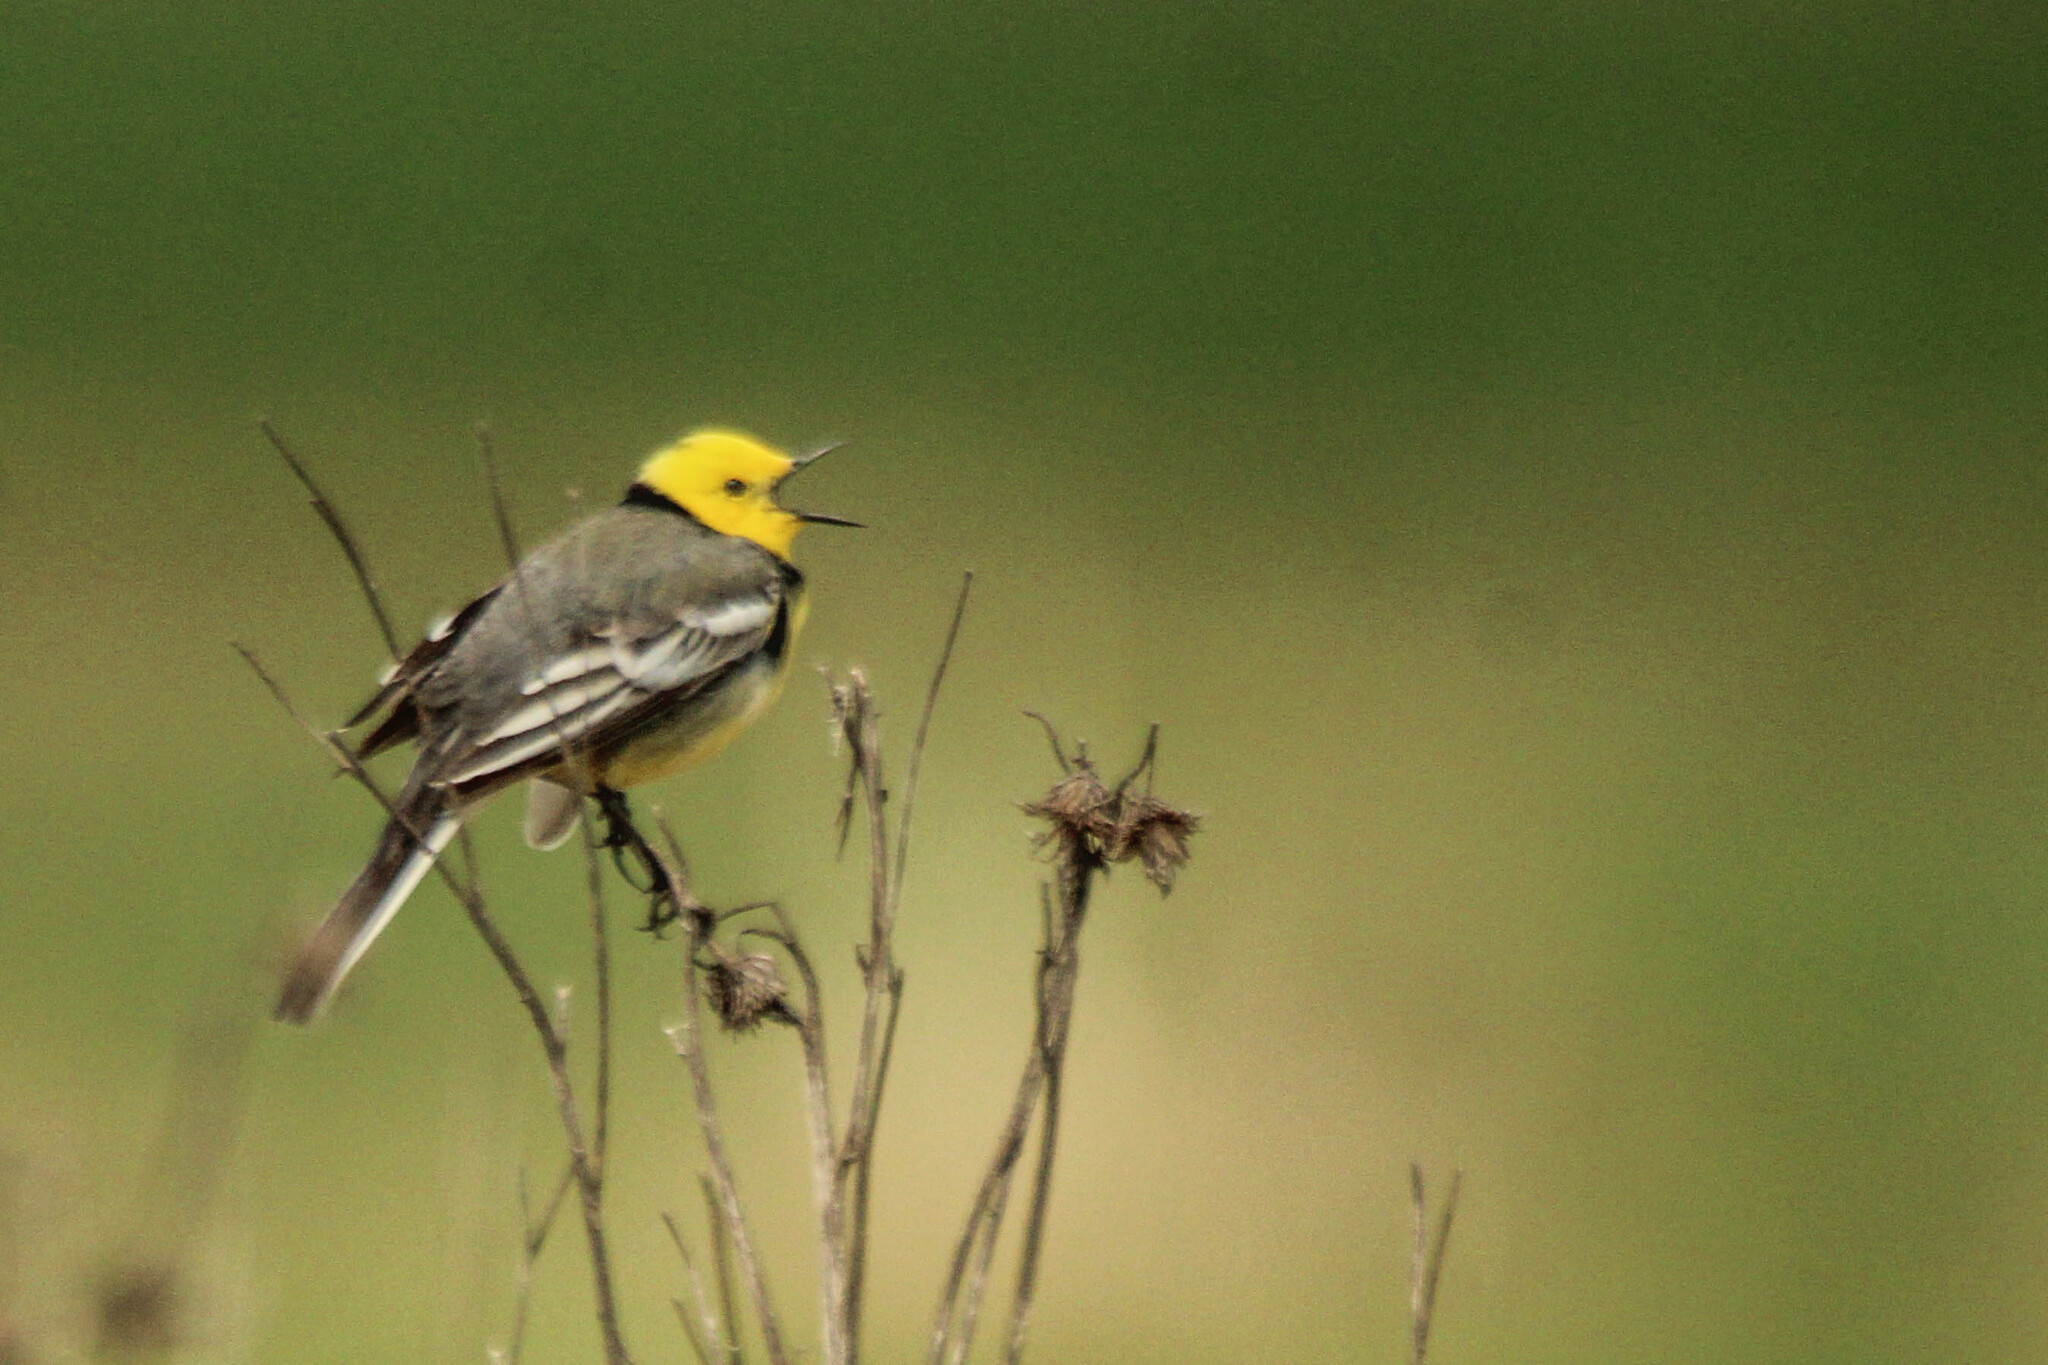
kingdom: Animalia
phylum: Chordata
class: Aves
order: Passeriformes
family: Motacillidae
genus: Motacilla
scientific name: Motacilla citreola
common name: Citrine wagtail
